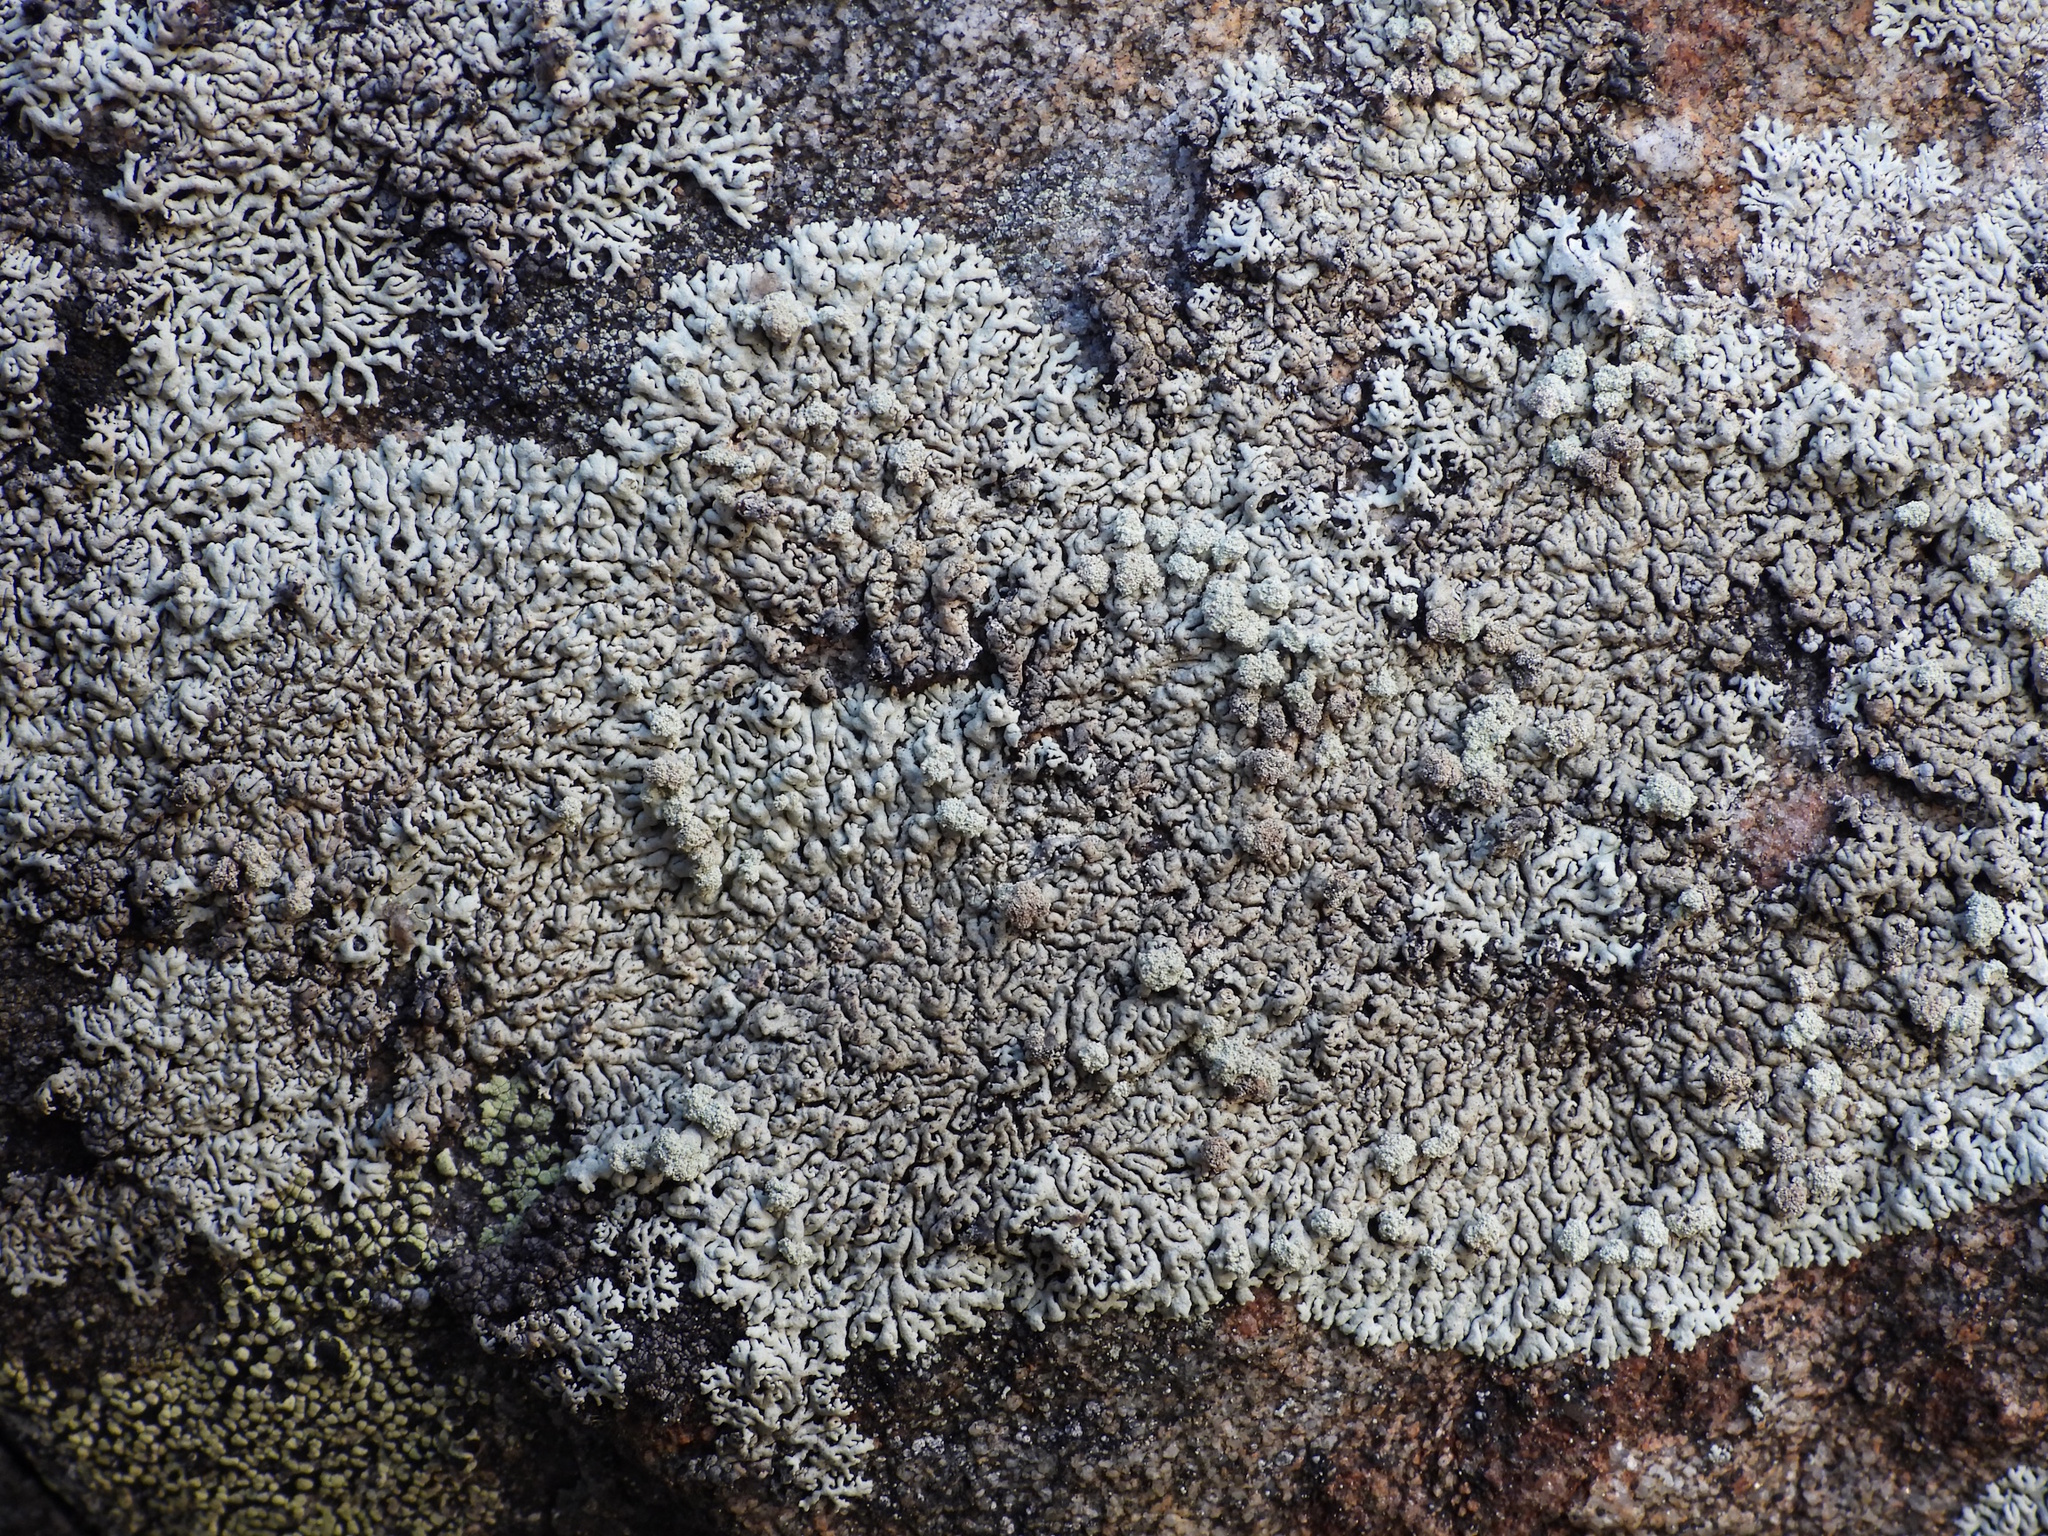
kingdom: Fungi
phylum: Ascomycota
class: Lecanoromycetes
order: Lecanorales
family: Parmeliaceae
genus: Arctoparmelia
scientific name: Arctoparmelia incurva
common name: Bent ring lichen
